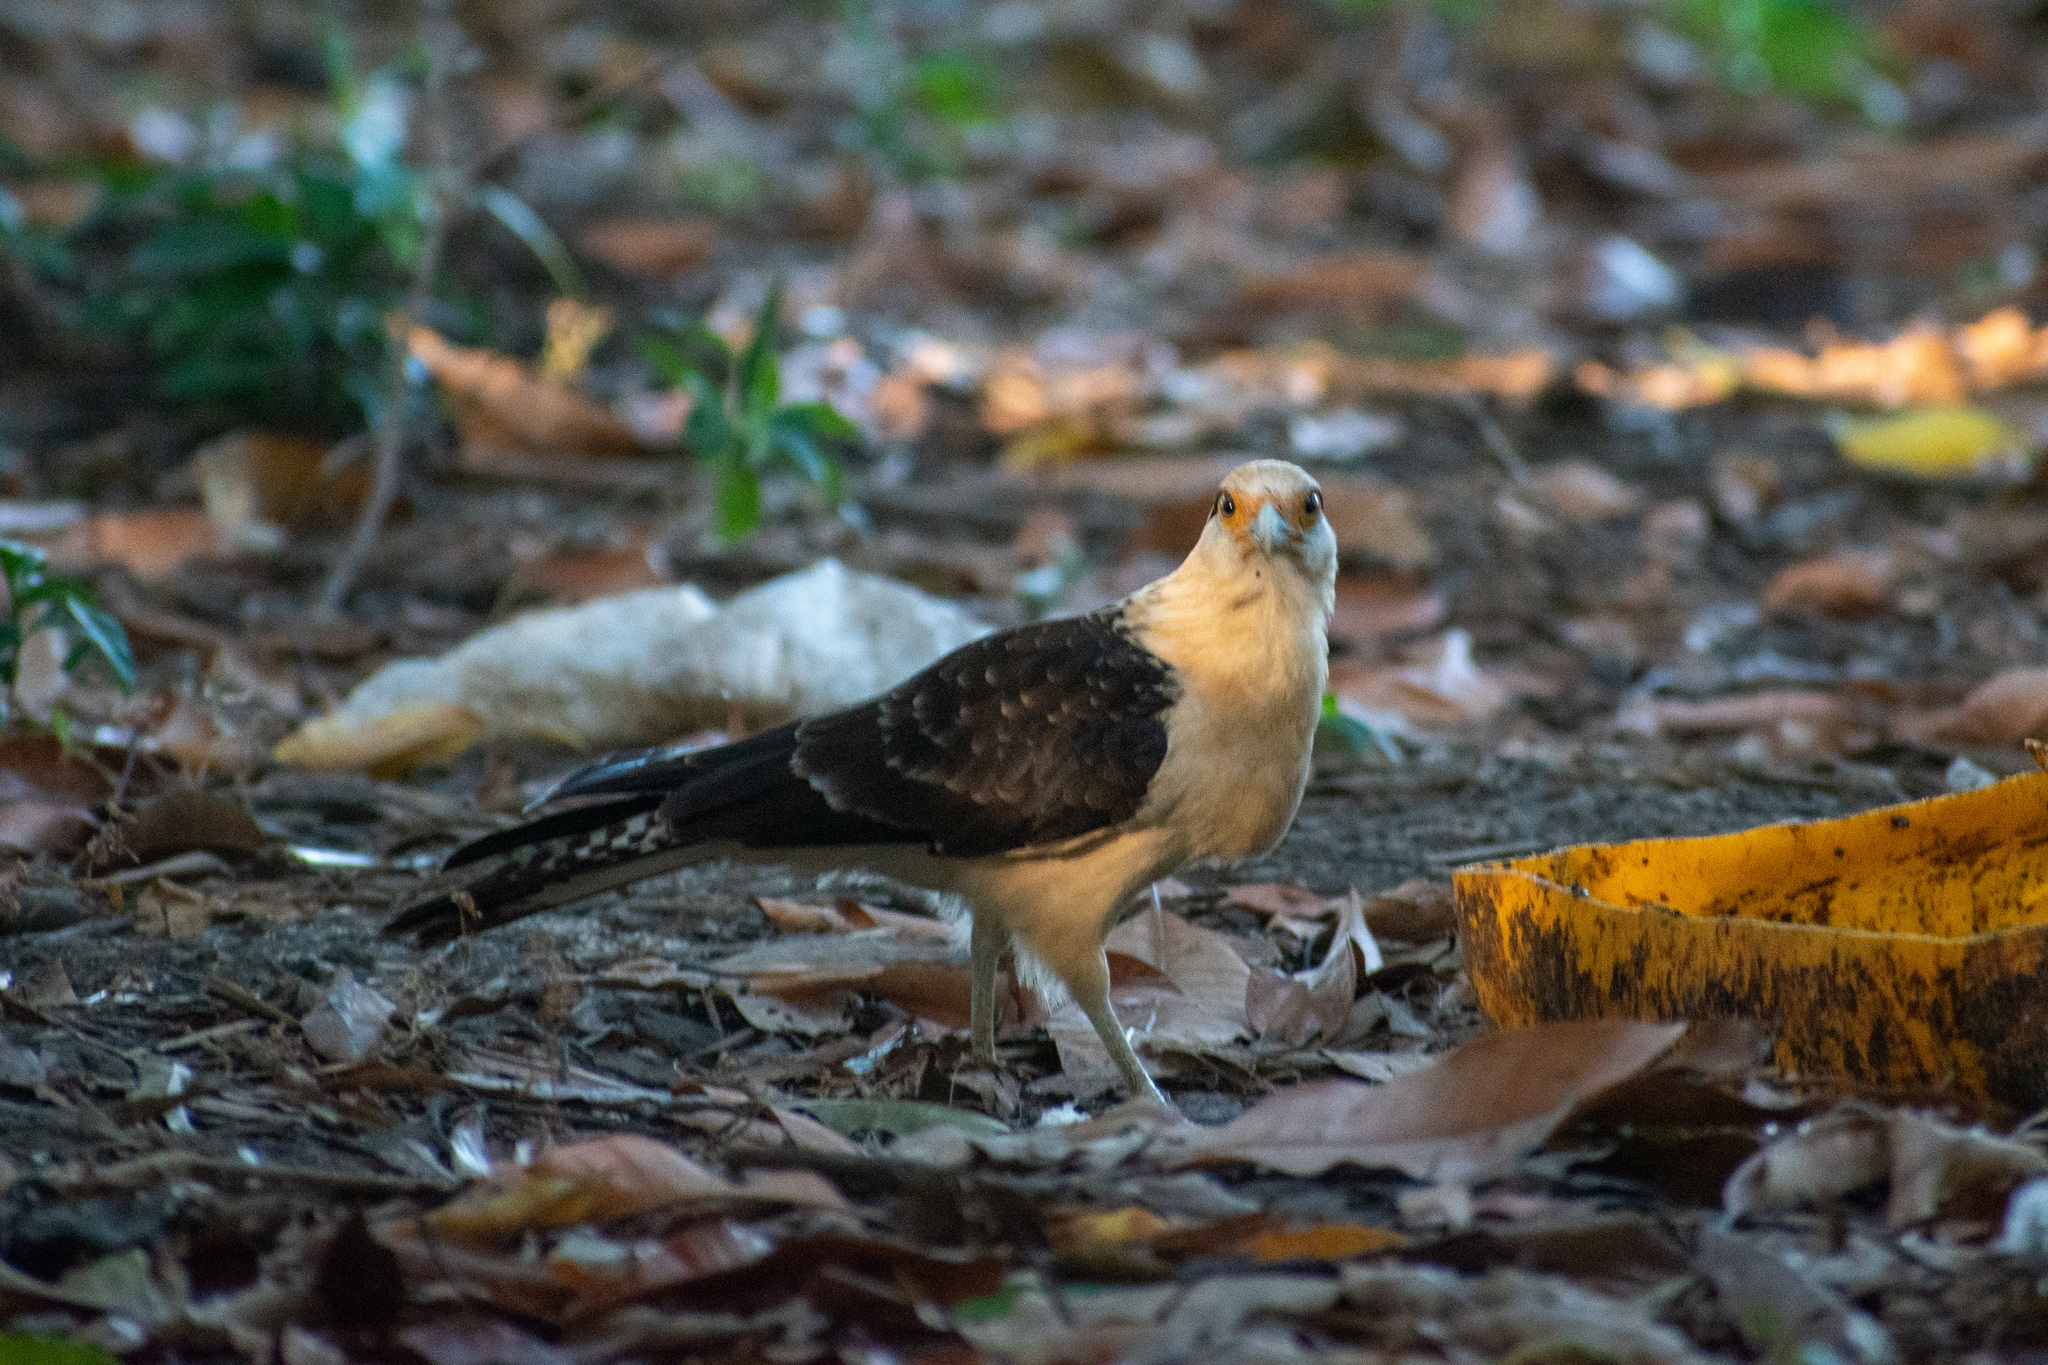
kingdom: Animalia
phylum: Chordata
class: Aves
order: Falconiformes
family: Falconidae
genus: Daptrius
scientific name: Daptrius
